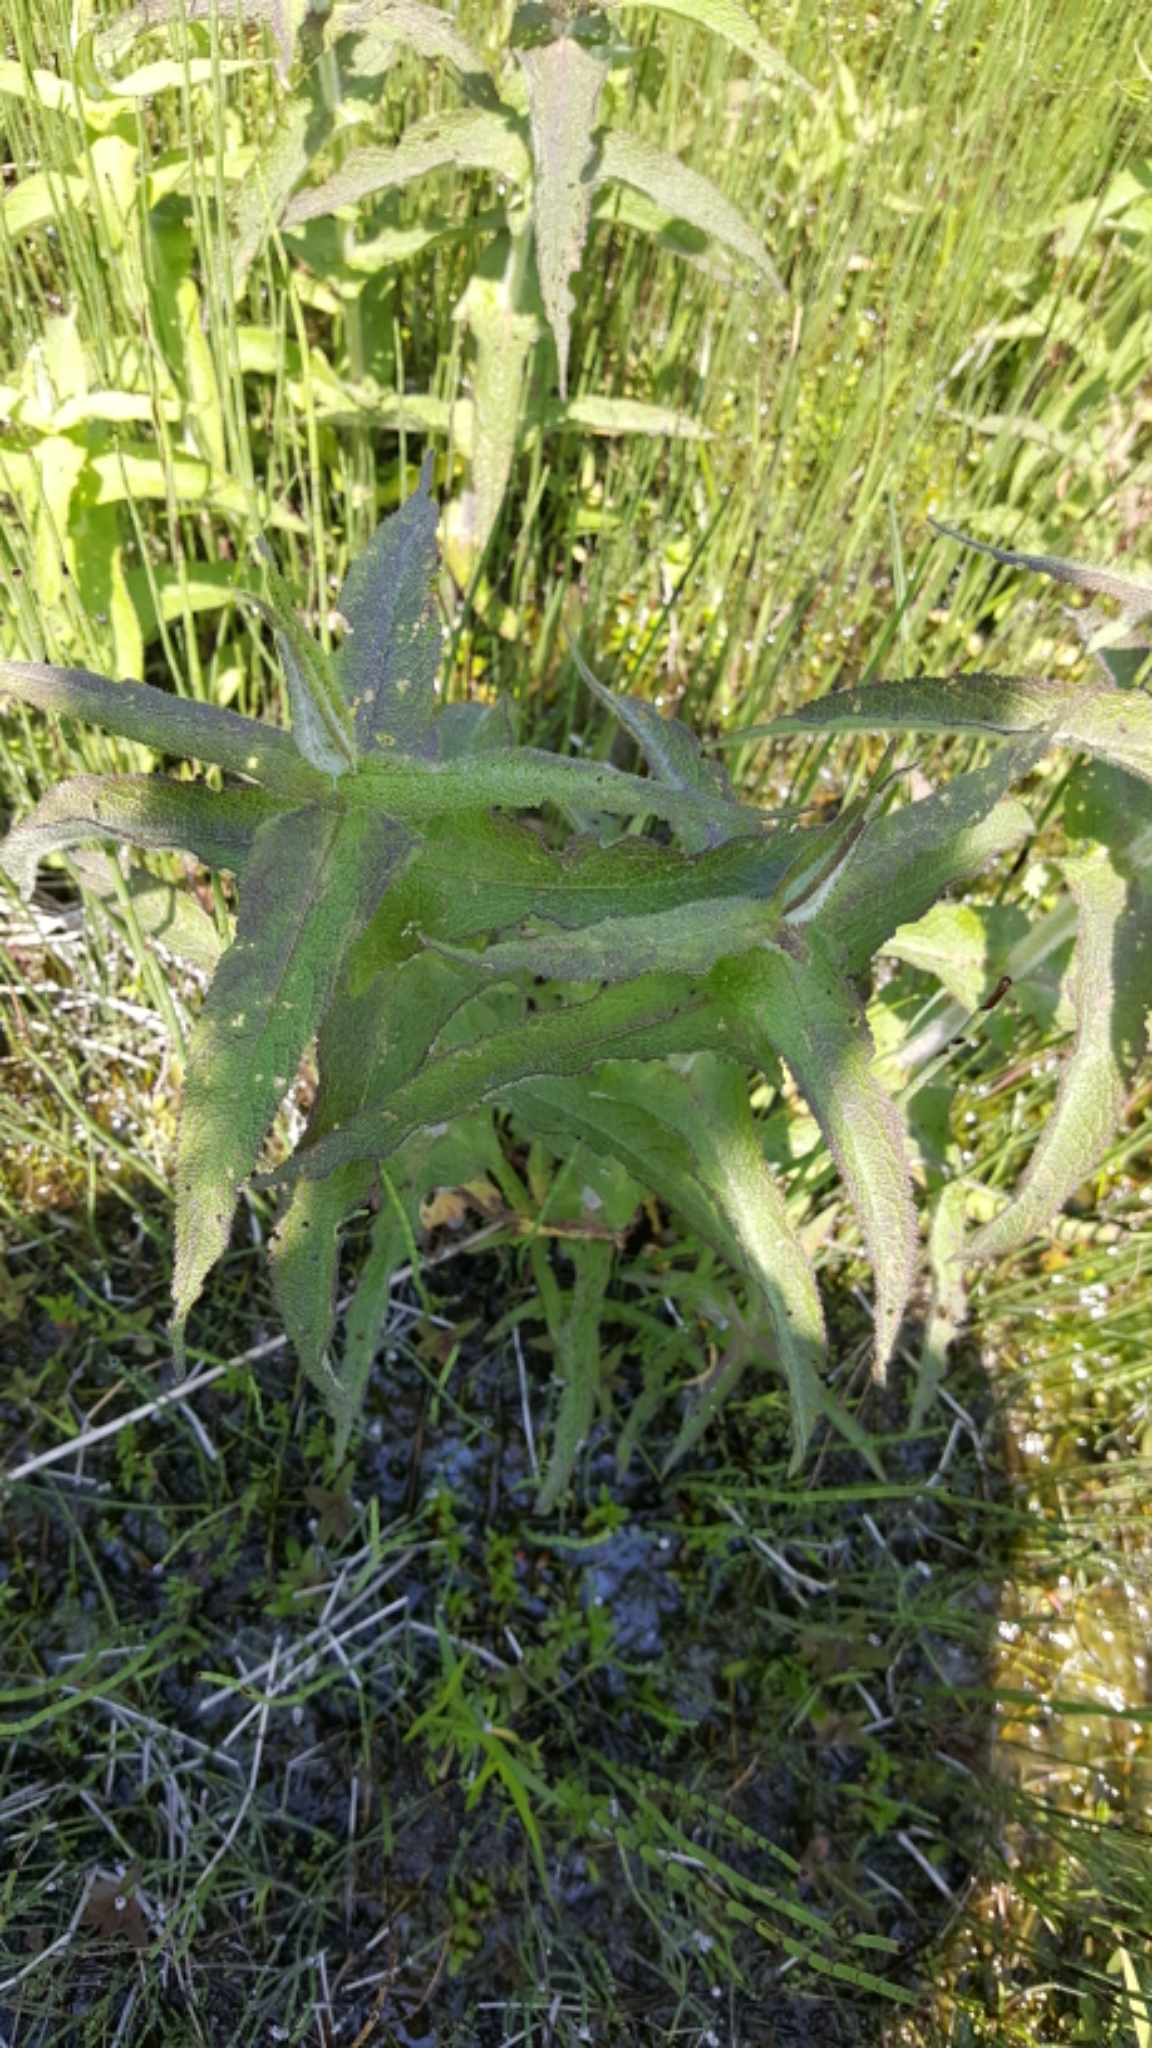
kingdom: Plantae
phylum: Tracheophyta
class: Magnoliopsida
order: Asterales
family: Asteraceae
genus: Eupatorium
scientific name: Eupatorium perfoliatum
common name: Boneset
